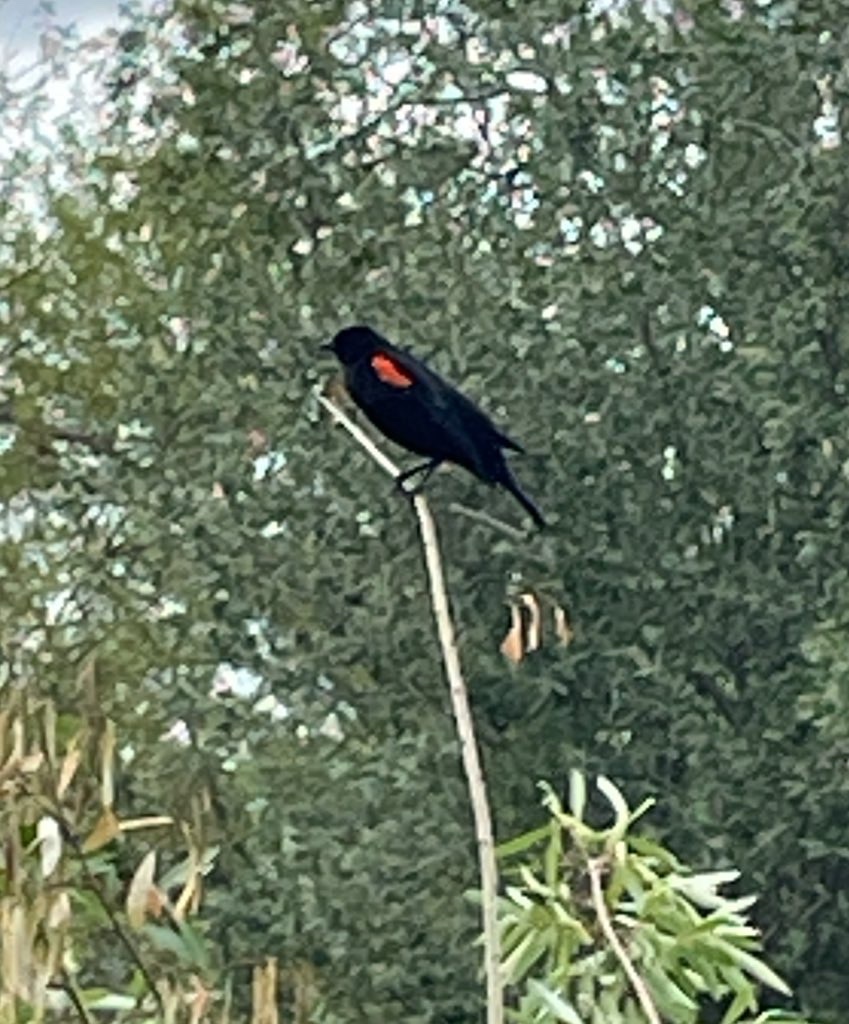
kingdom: Animalia
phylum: Chordata
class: Aves
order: Passeriformes
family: Icteridae
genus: Agelaius
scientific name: Agelaius phoeniceus
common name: Red-winged blackbird
